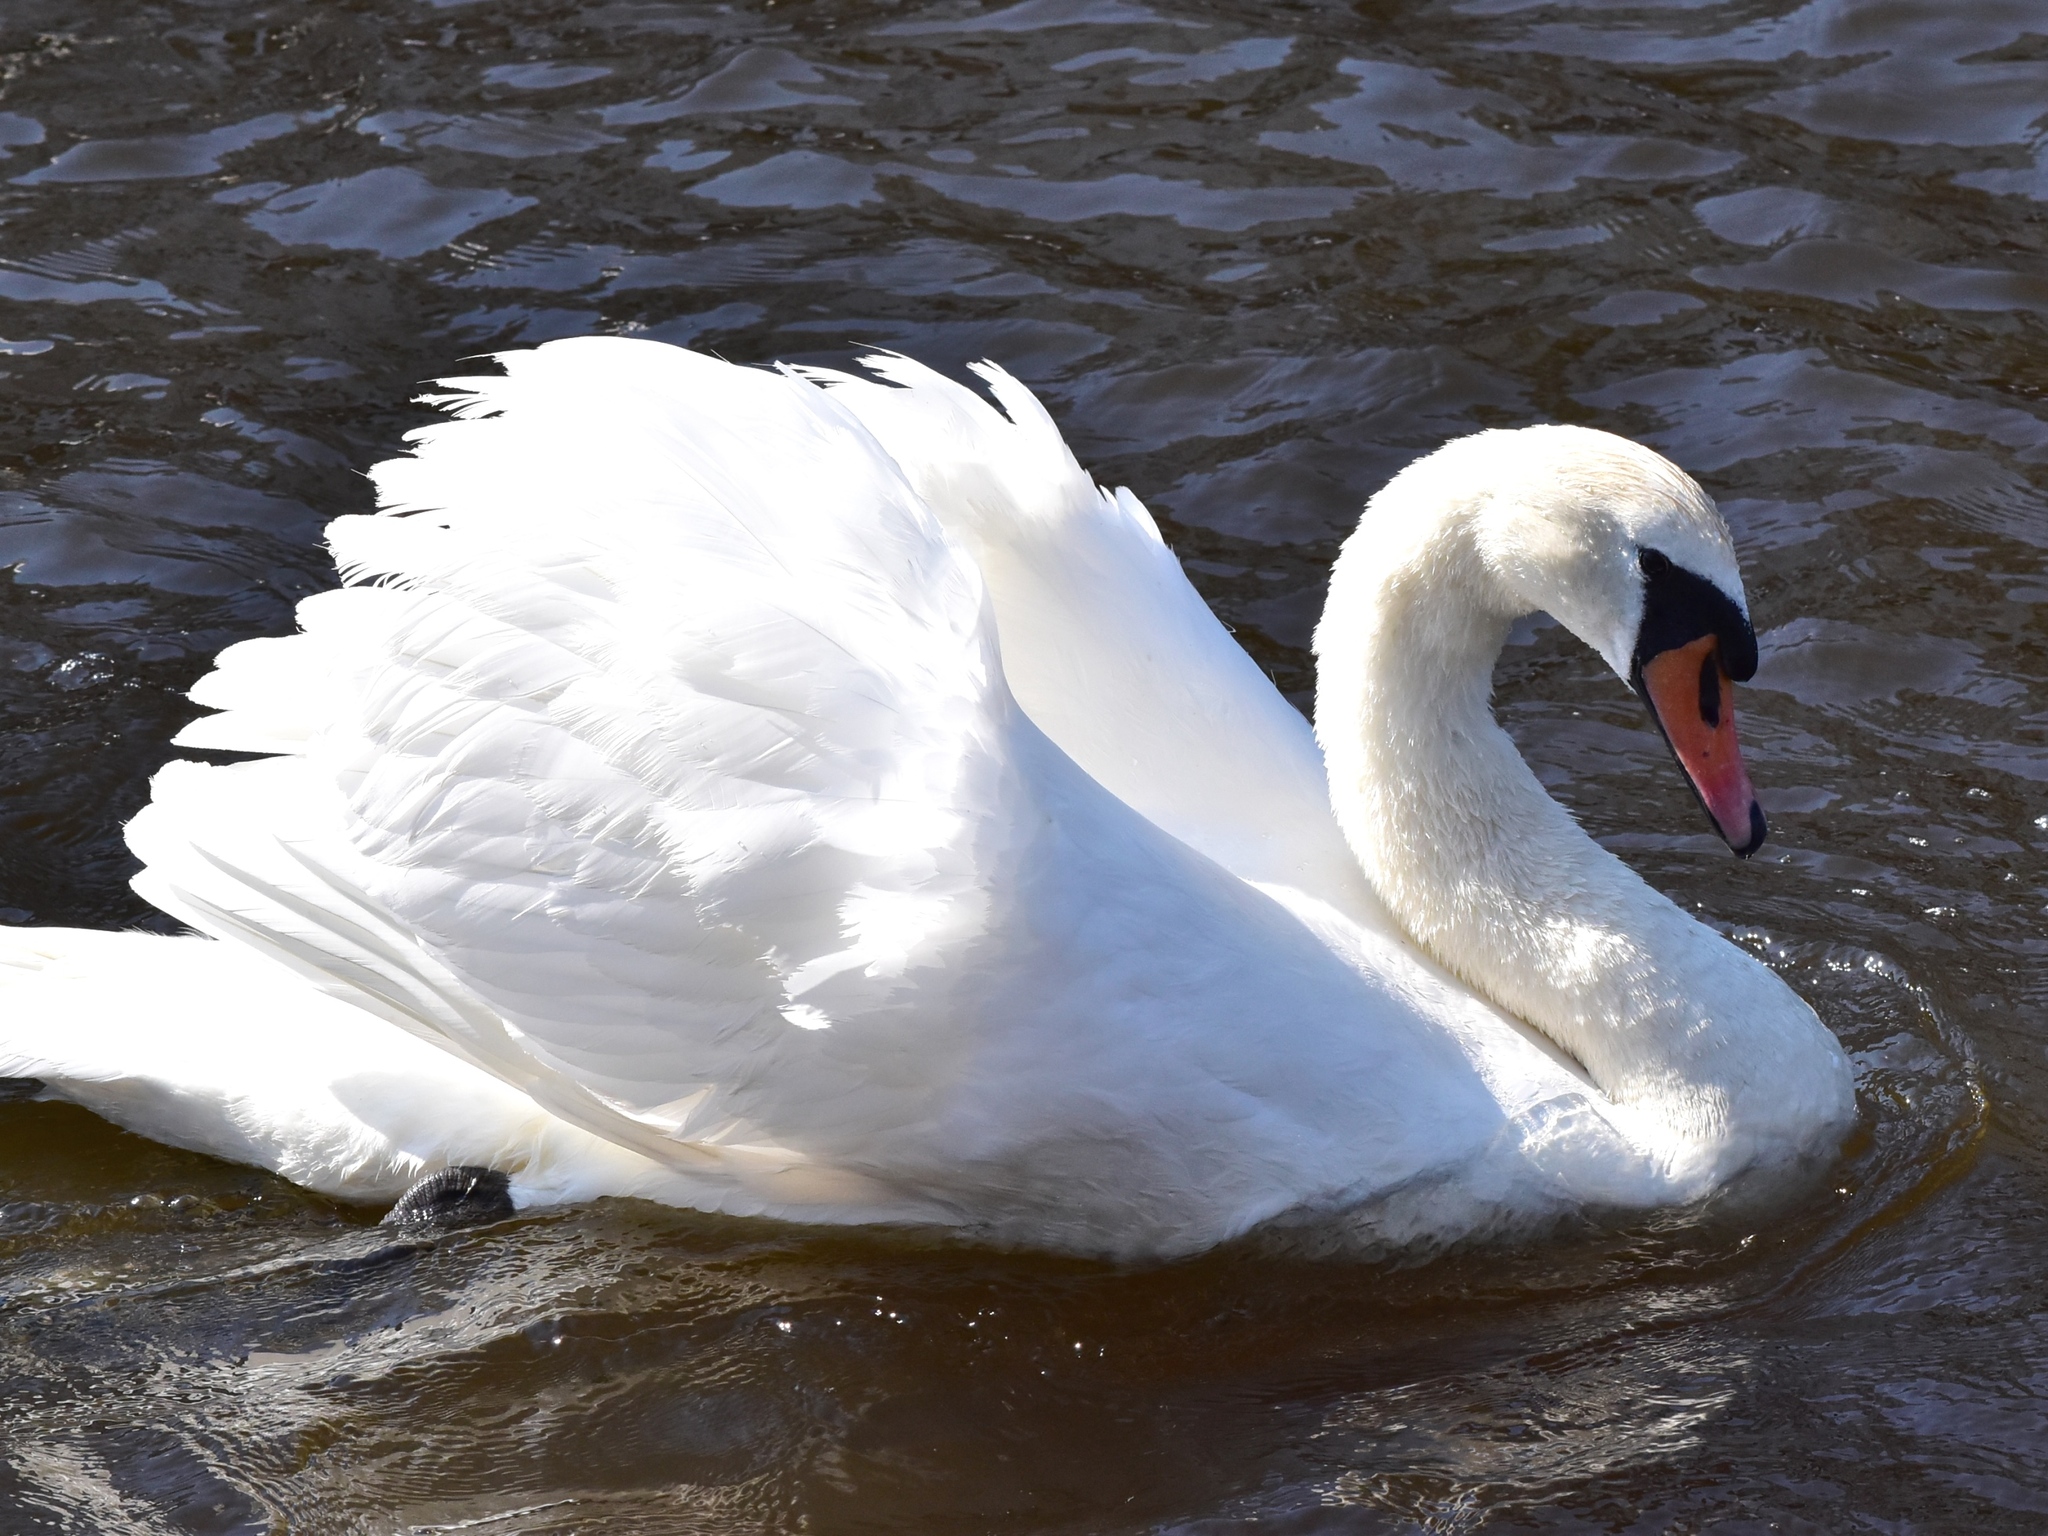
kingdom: Animalia
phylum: Chordata
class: Aves
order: Anseriformes
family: Anatidae
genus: Cygnus
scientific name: Cygnus olor
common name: Mute swan
